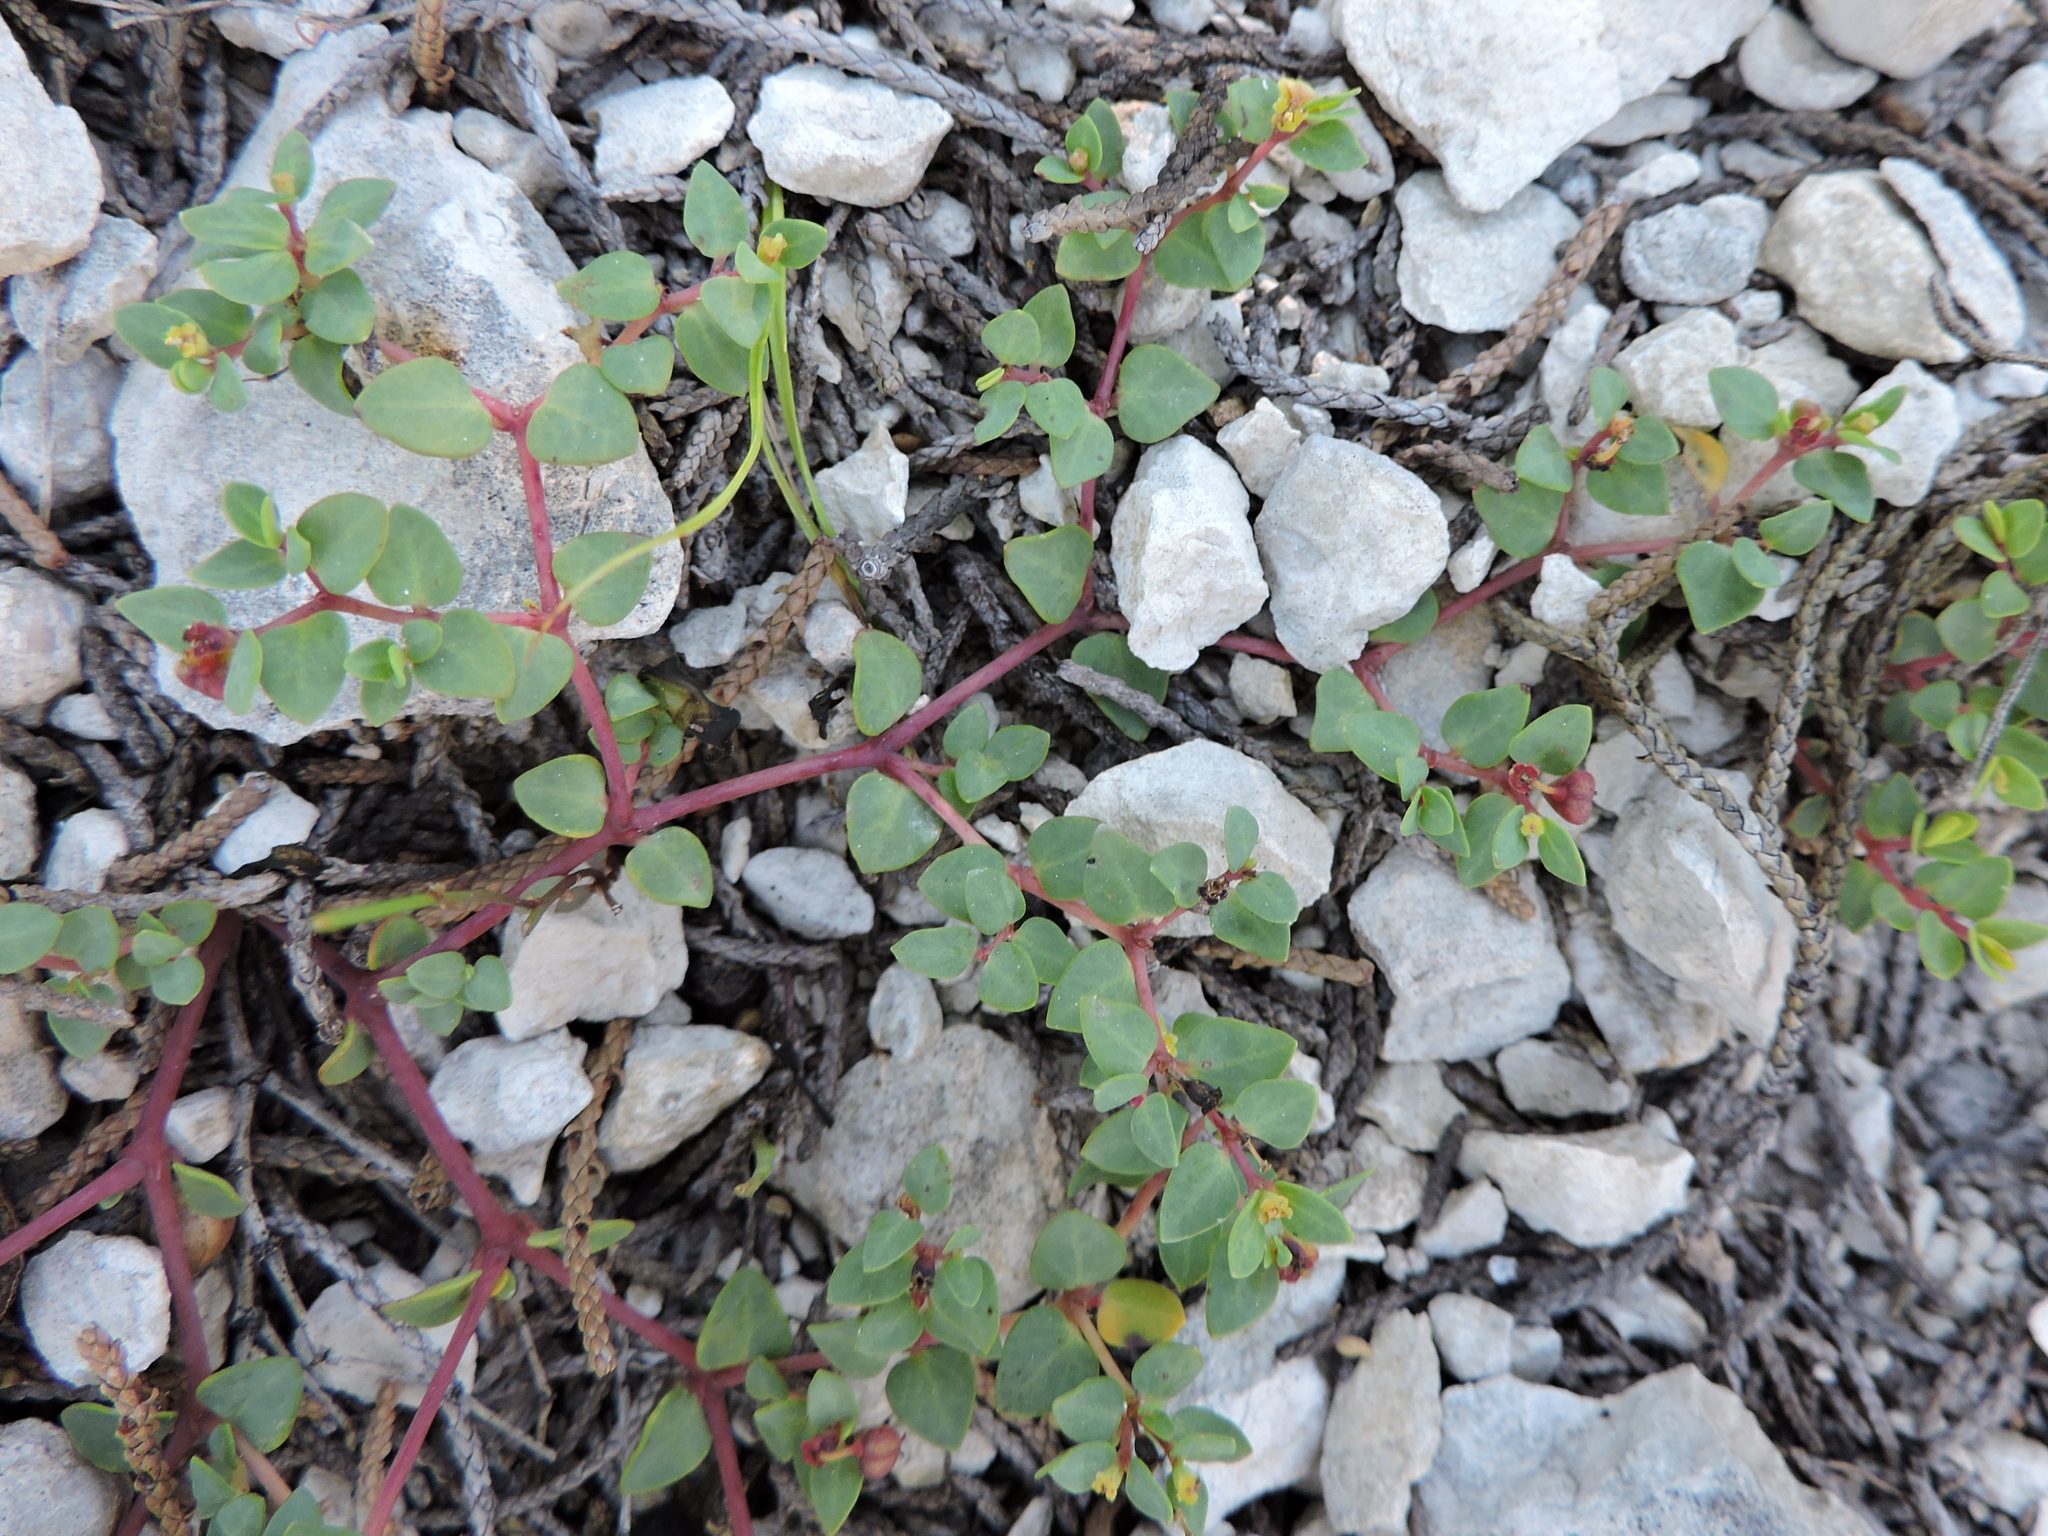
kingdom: Plantae
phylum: Tracheophyta
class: Magnoliopsida
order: Malpighiales
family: Euphorbiaceae
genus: Euphorbia
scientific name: Euphorbia fendleri
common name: Fendler's euphorbia
